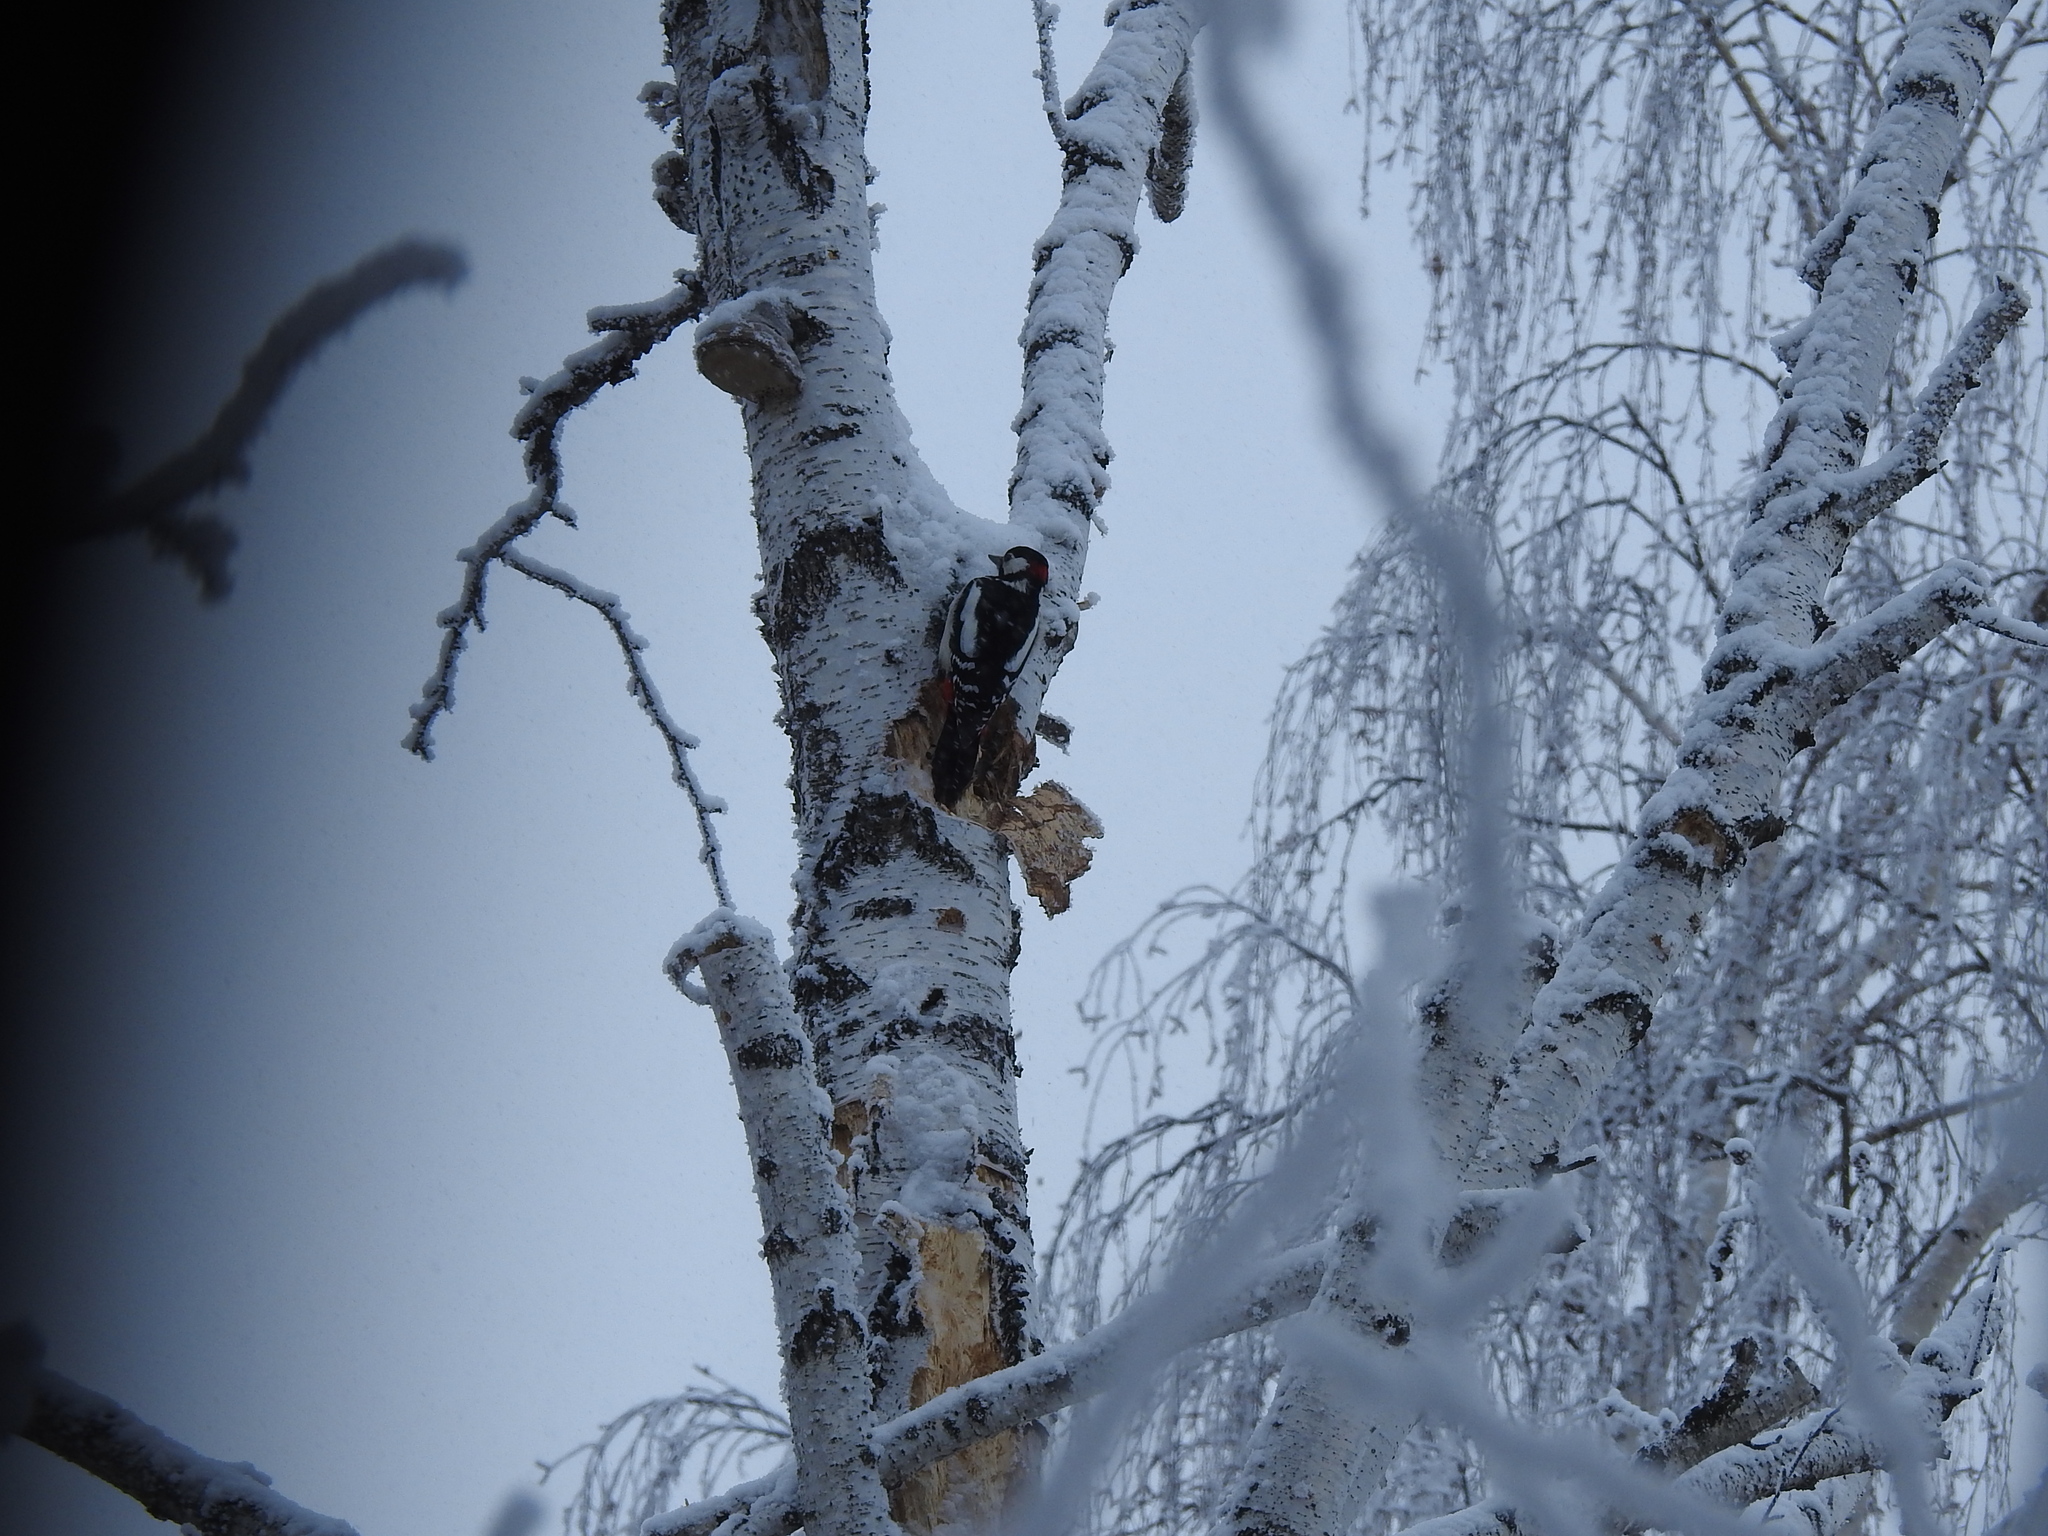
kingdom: Animalia
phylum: Chordata
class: Aves
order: Piciformes
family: Picidae
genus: Dendrocopos
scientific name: Dendrocopos major
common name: Great spotted woodpecker
